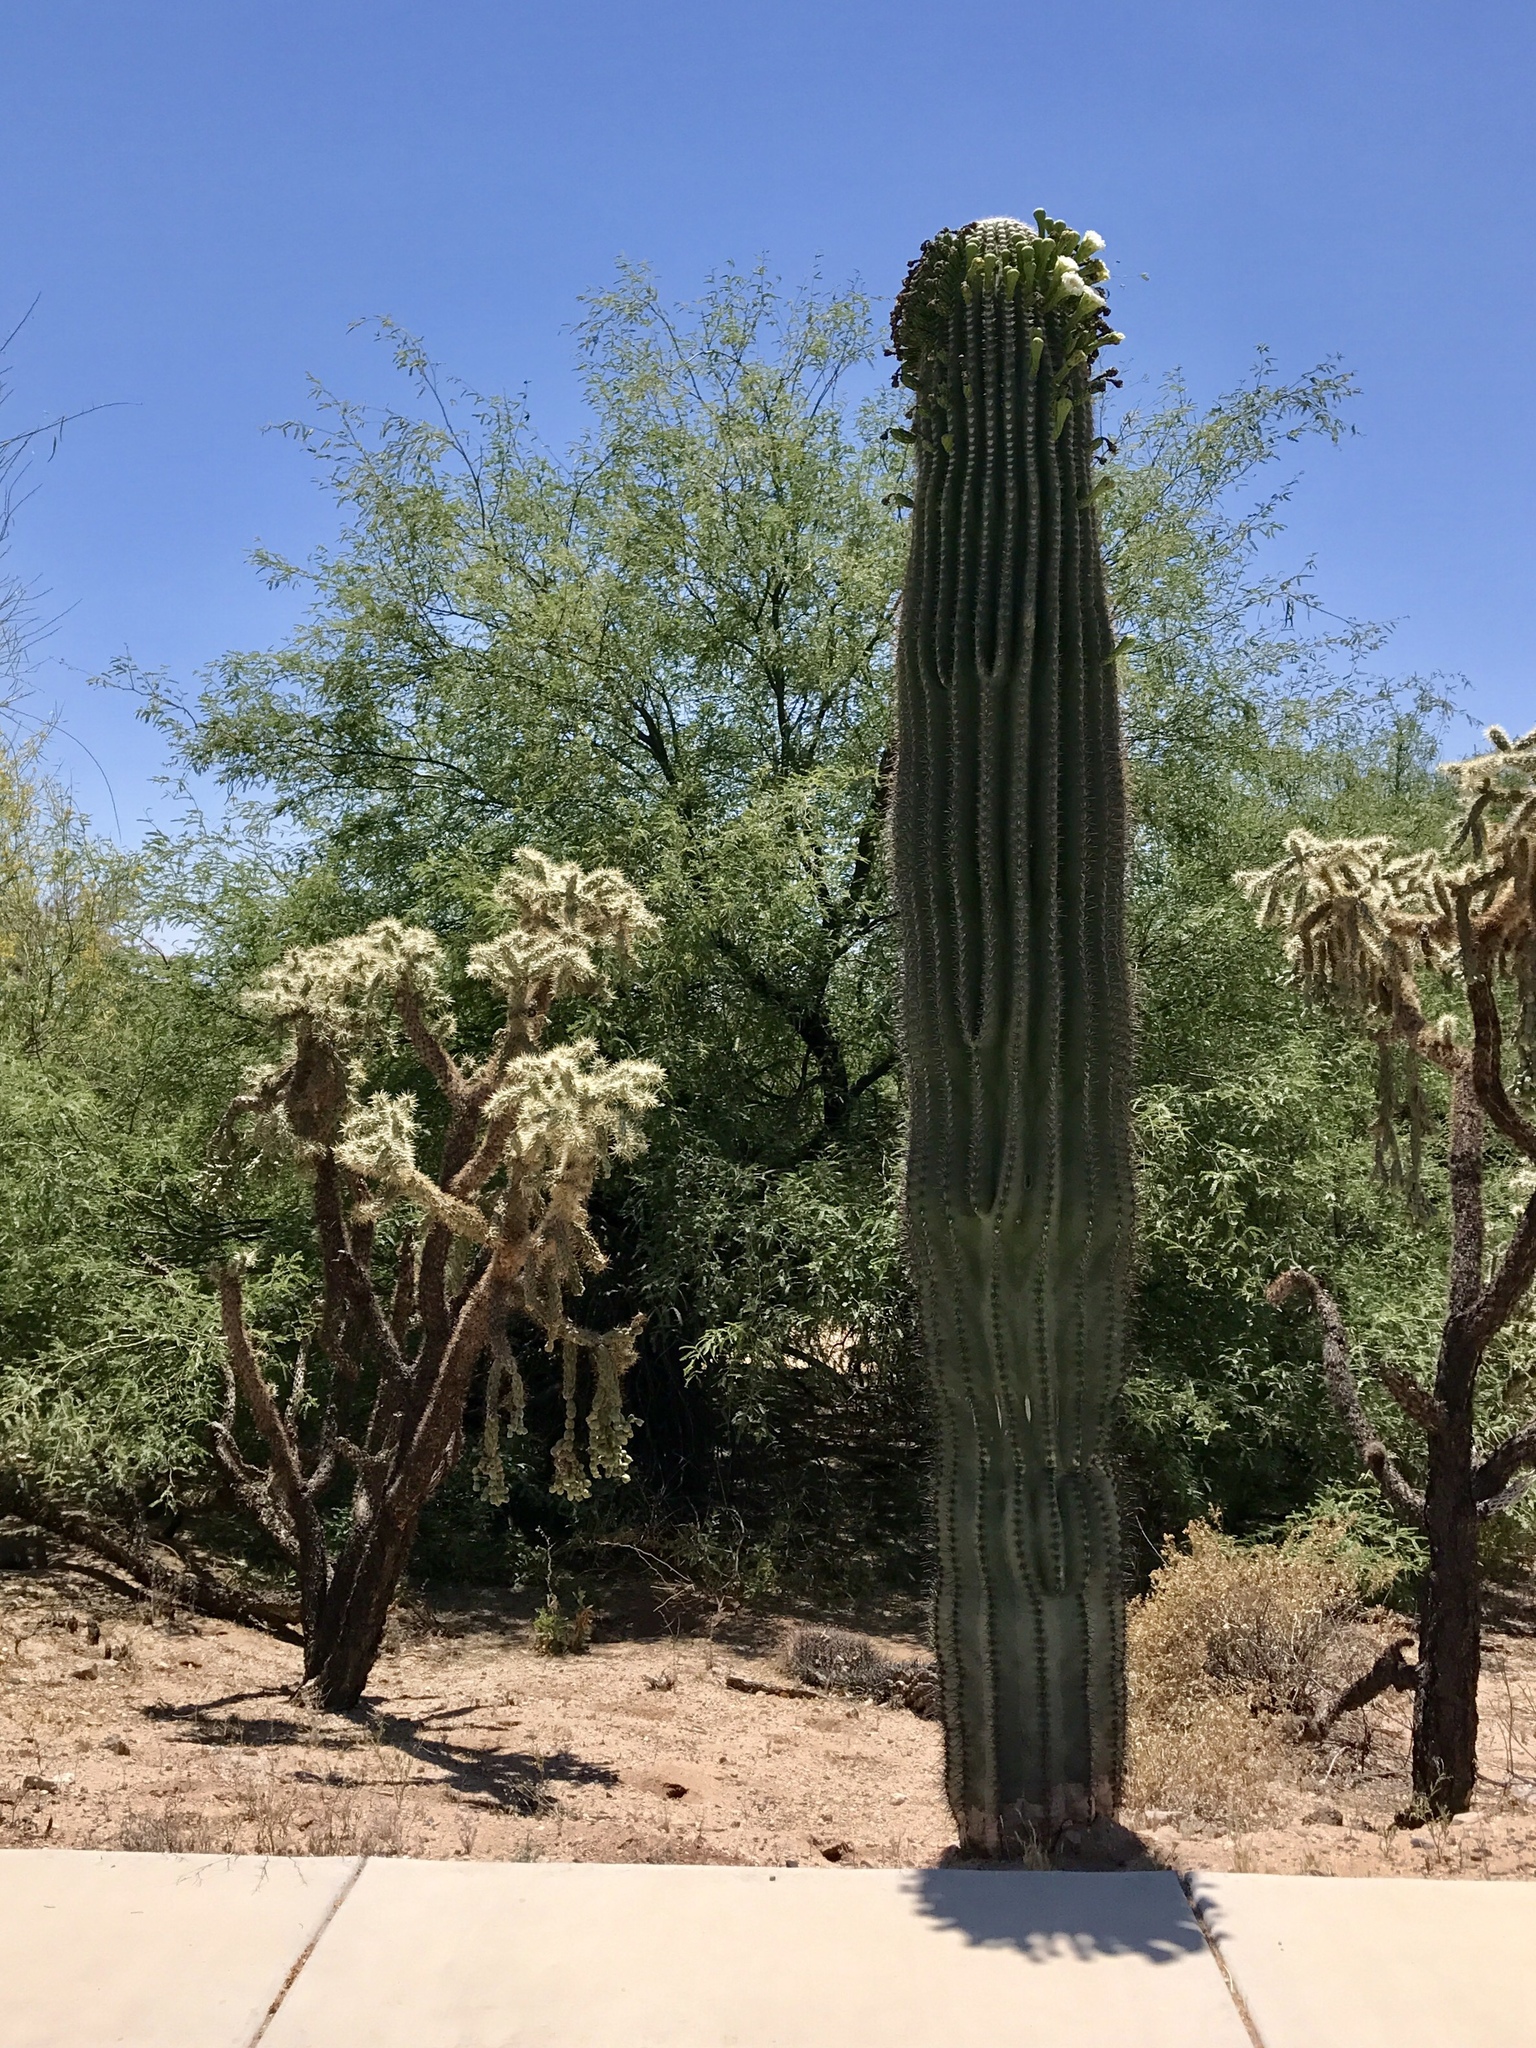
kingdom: Plantae
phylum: Tracheophyta
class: Magnoliopsida
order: Caryophyllales
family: Cactaceae
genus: Carnegiea
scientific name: Carnegiea gigantea
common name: Saguaro
